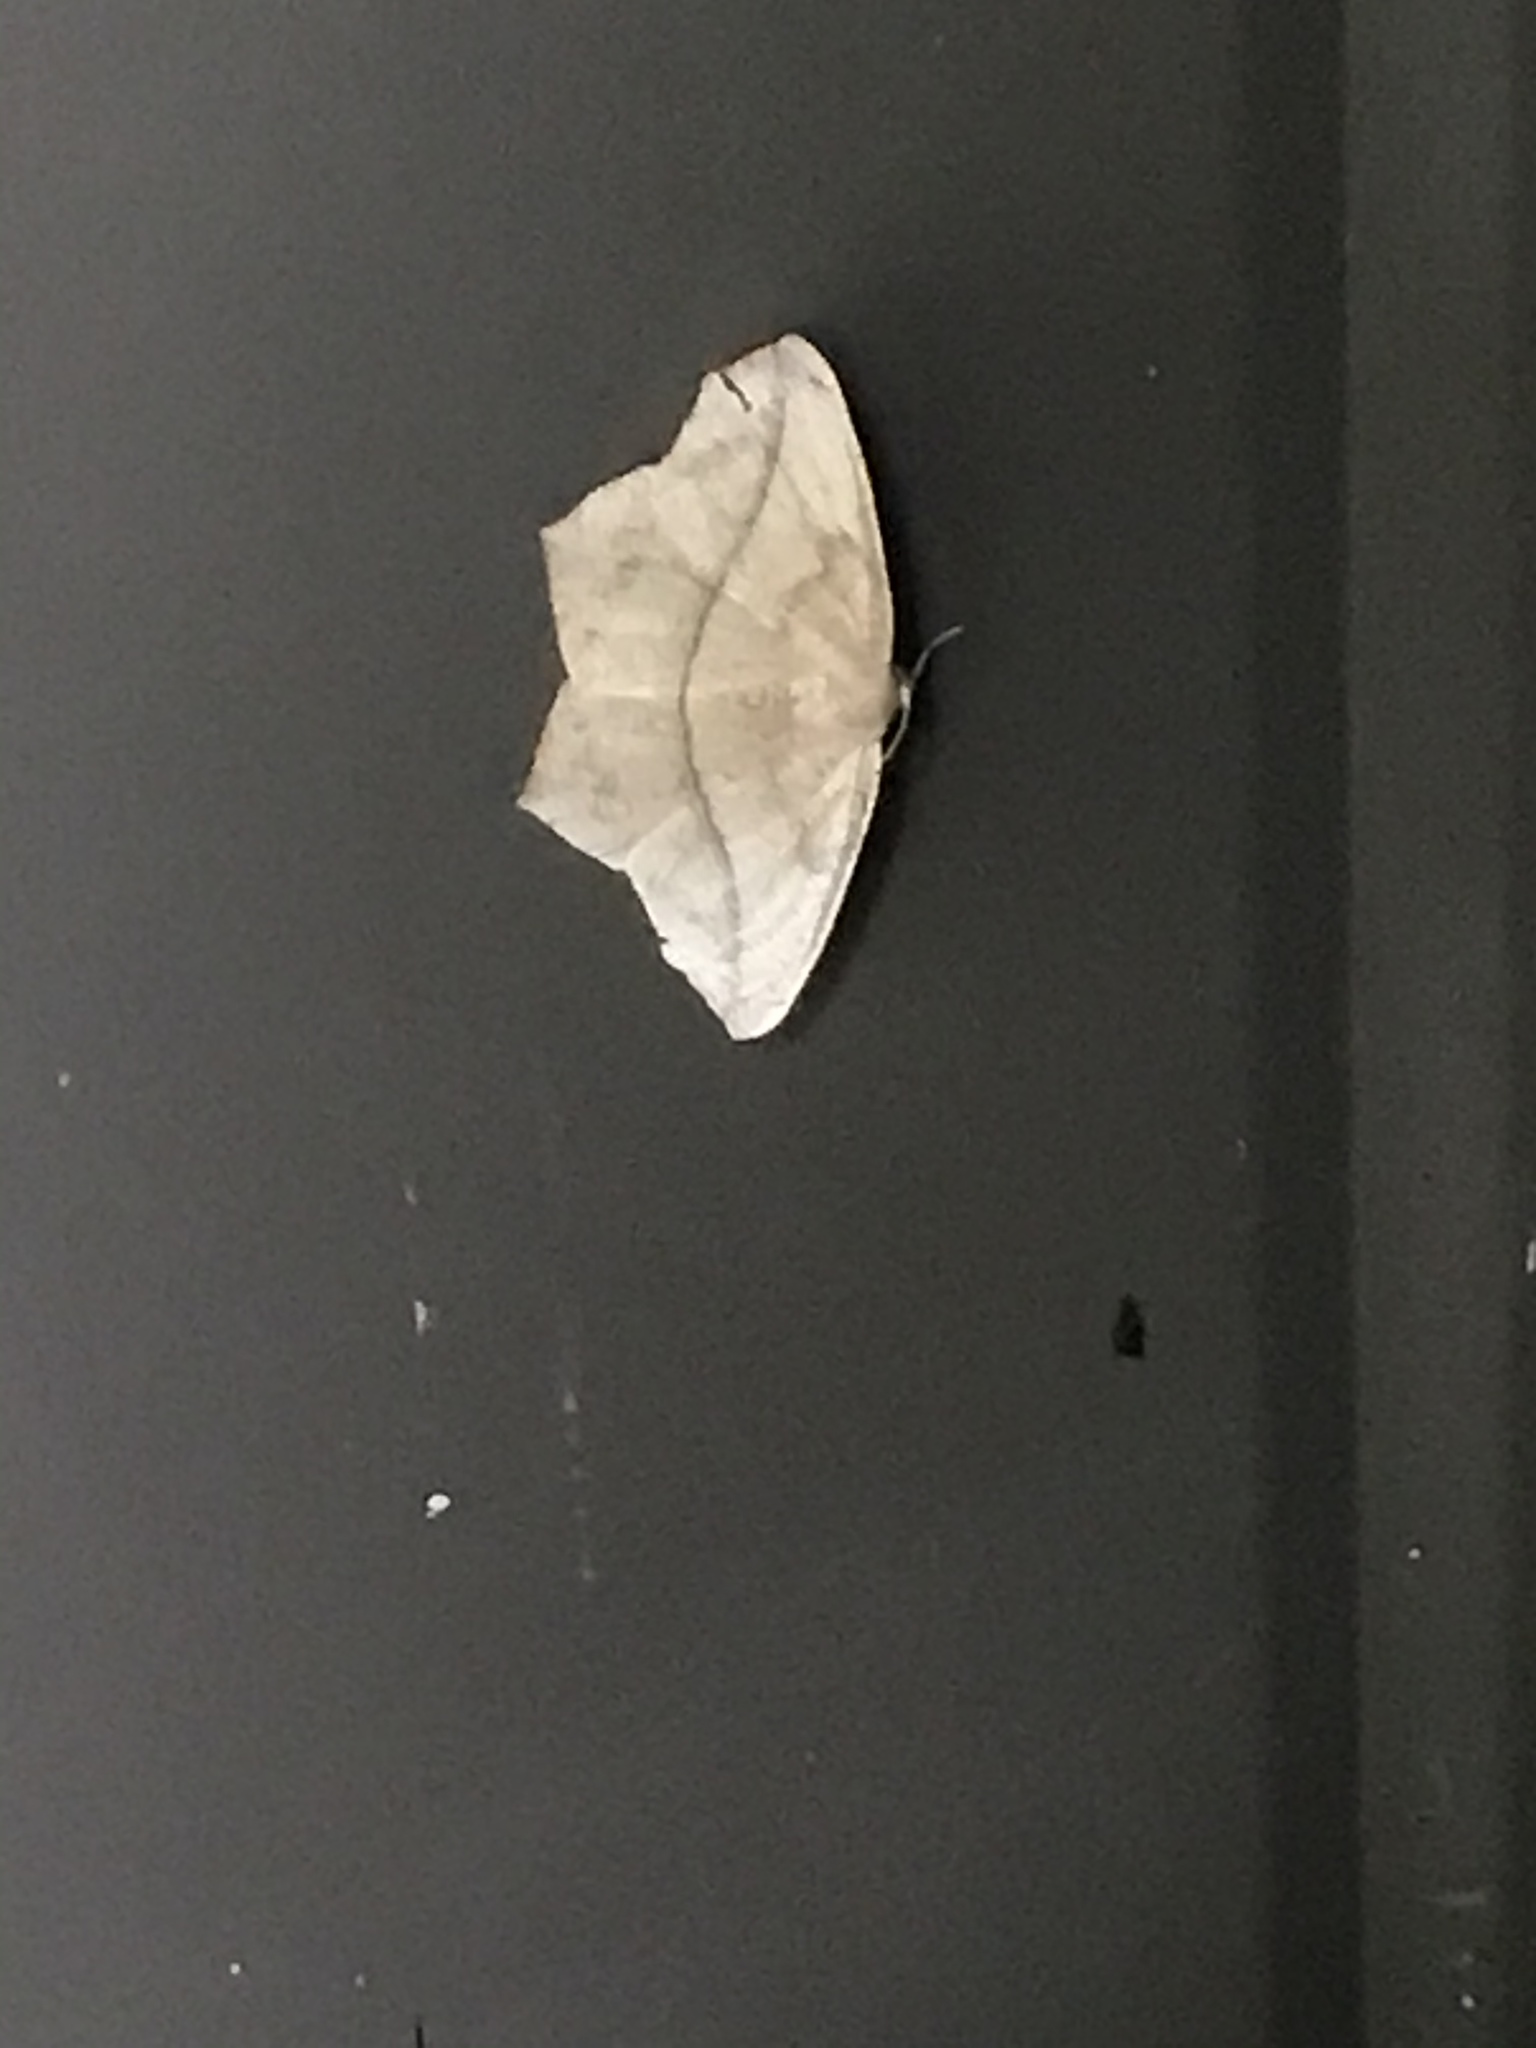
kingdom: Animalia
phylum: Arthropoda
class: Insecta
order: Lepidoptera
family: Geometridae
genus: Prochoerodes
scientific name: Prochoerodes lineola
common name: Large maple spanworm
